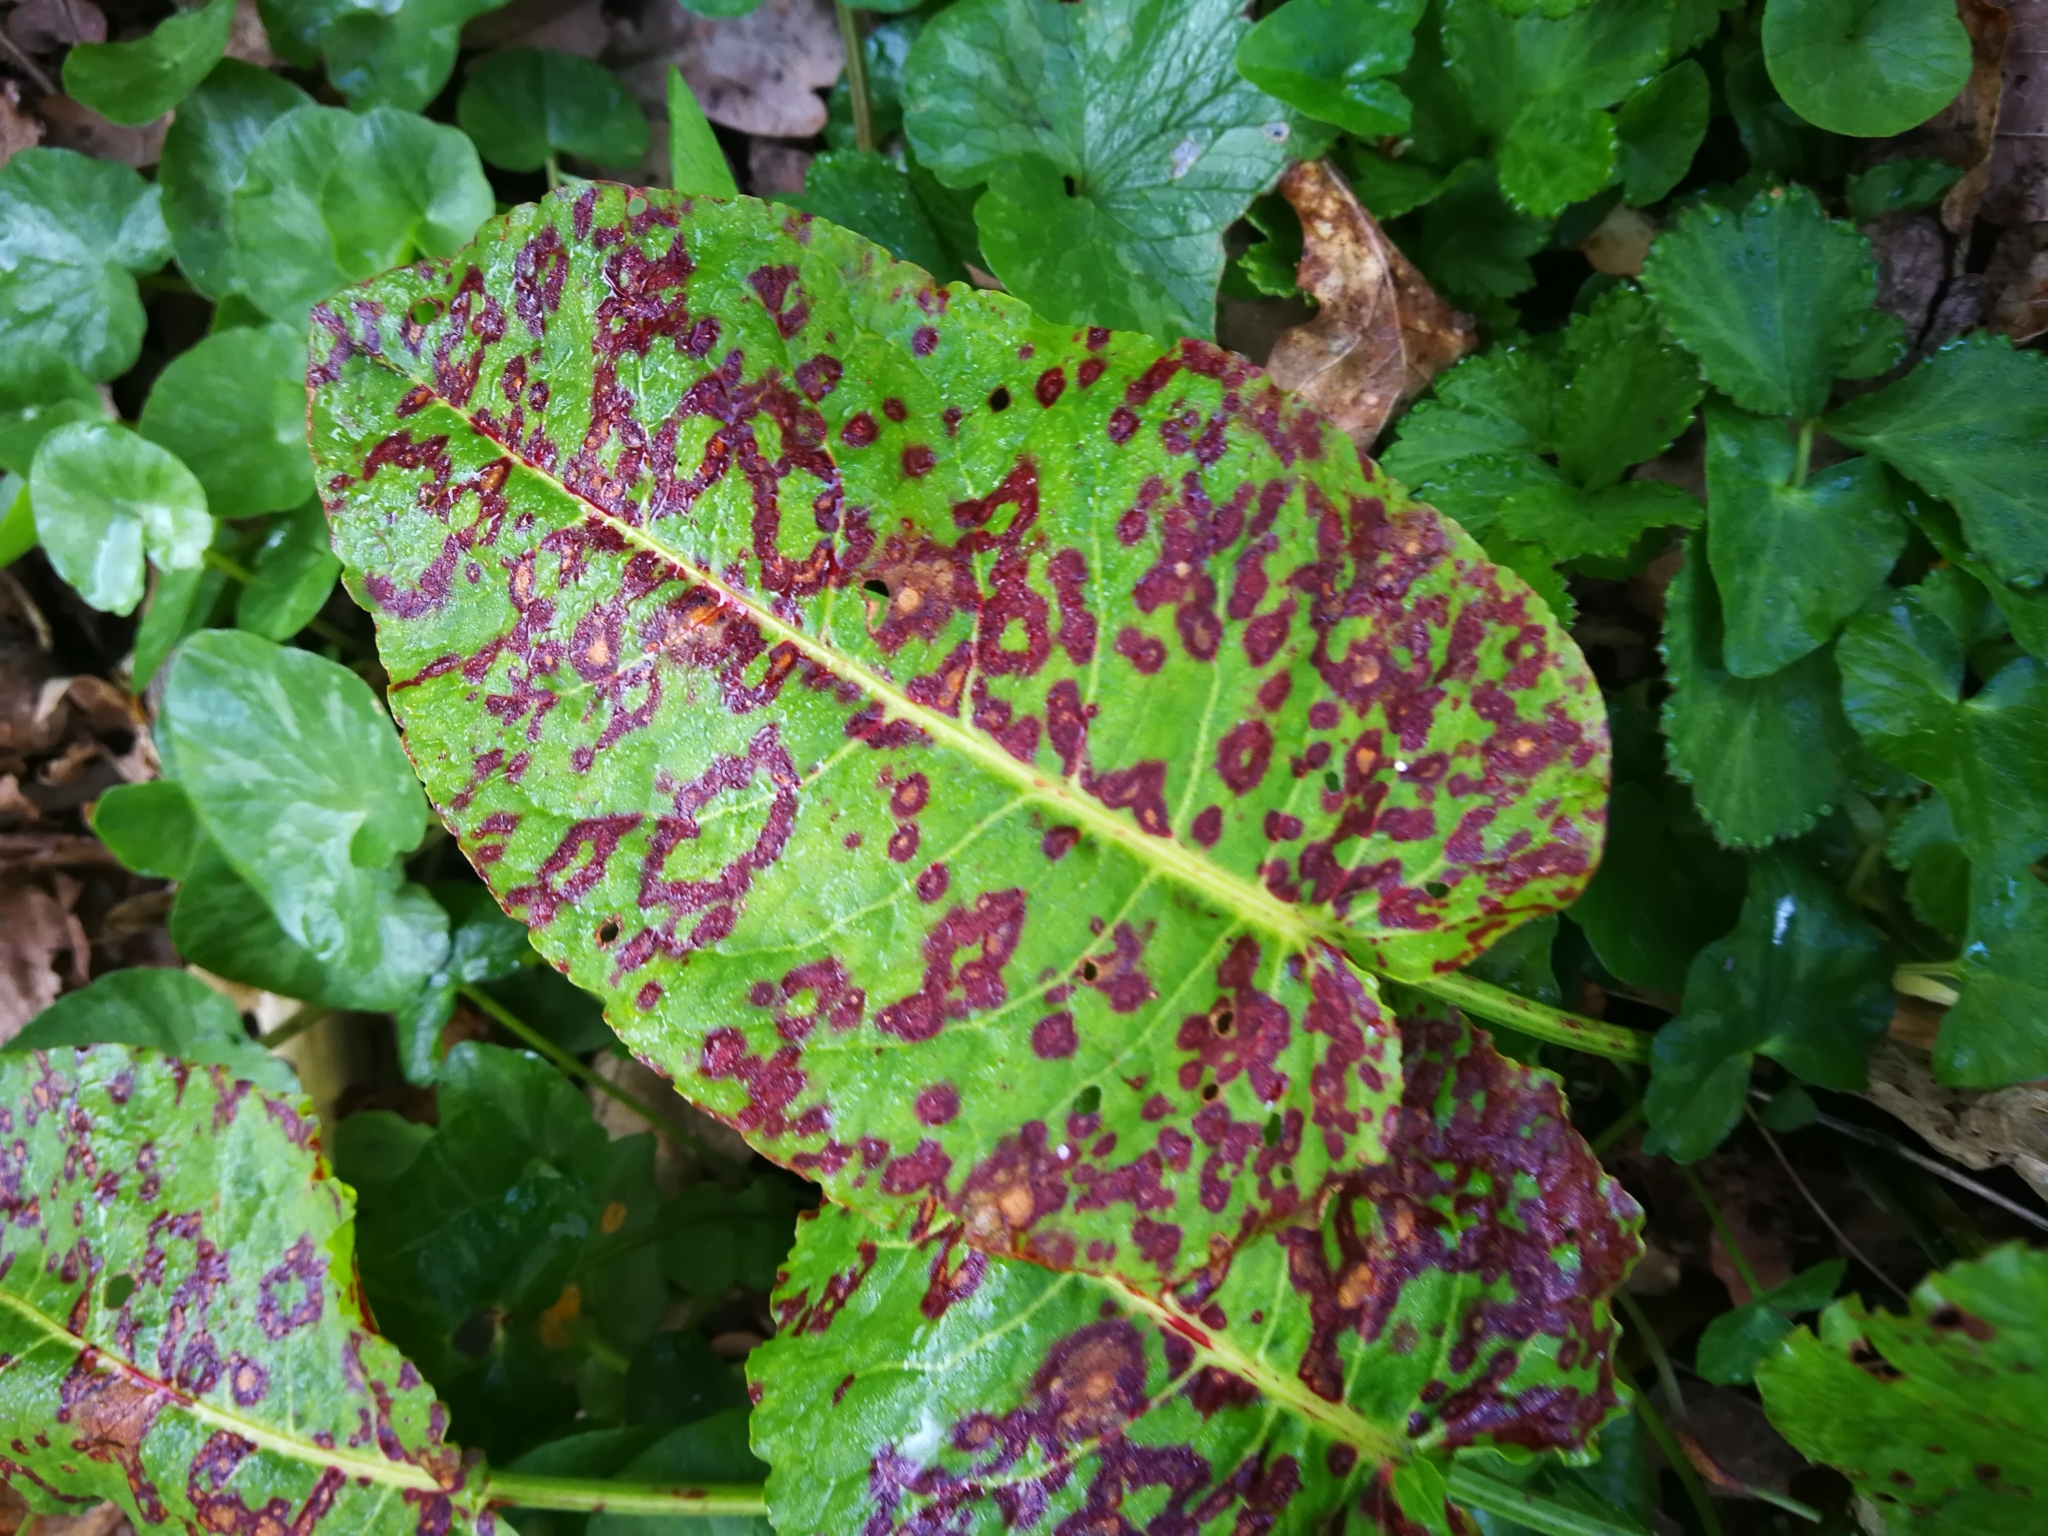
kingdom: Plantae
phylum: Tracheophyta
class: Magnoliopsida
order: Caryophyllales
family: Polygonaceae
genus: Rumex
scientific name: Rumex obtusifolius
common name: Bitter dock
